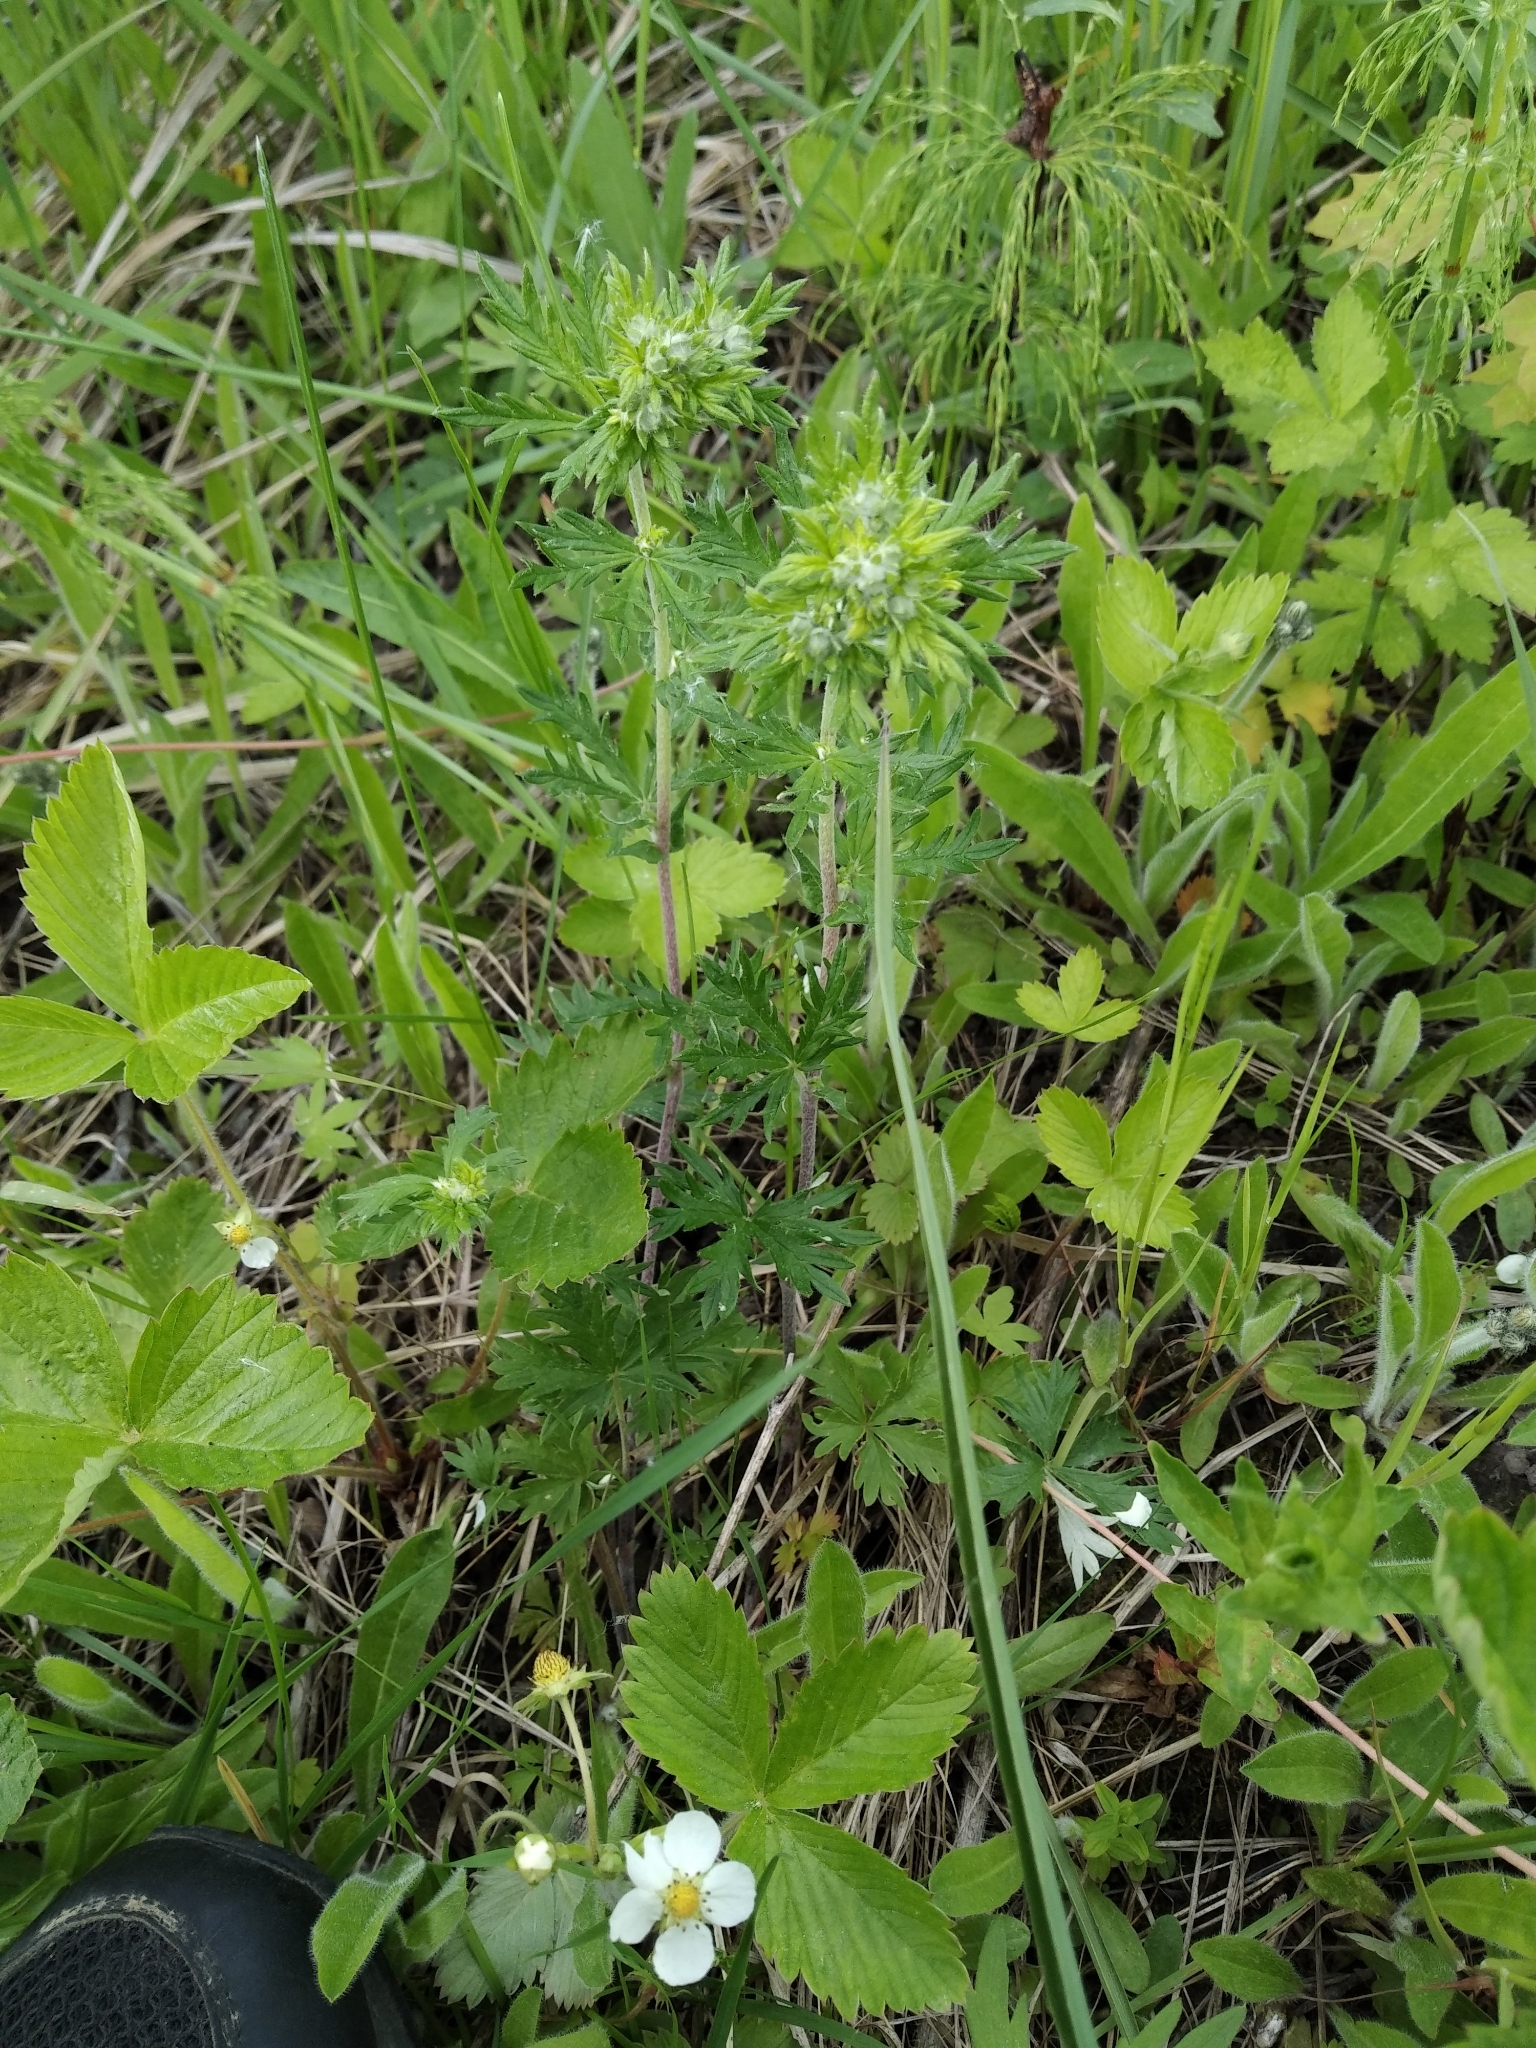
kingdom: Plantae
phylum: Tracheophyta
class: Magnoliopsida
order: Rosales
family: Rosaceae
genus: Potentilla
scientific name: Potentilla argentea
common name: Hoary cinquefoil
